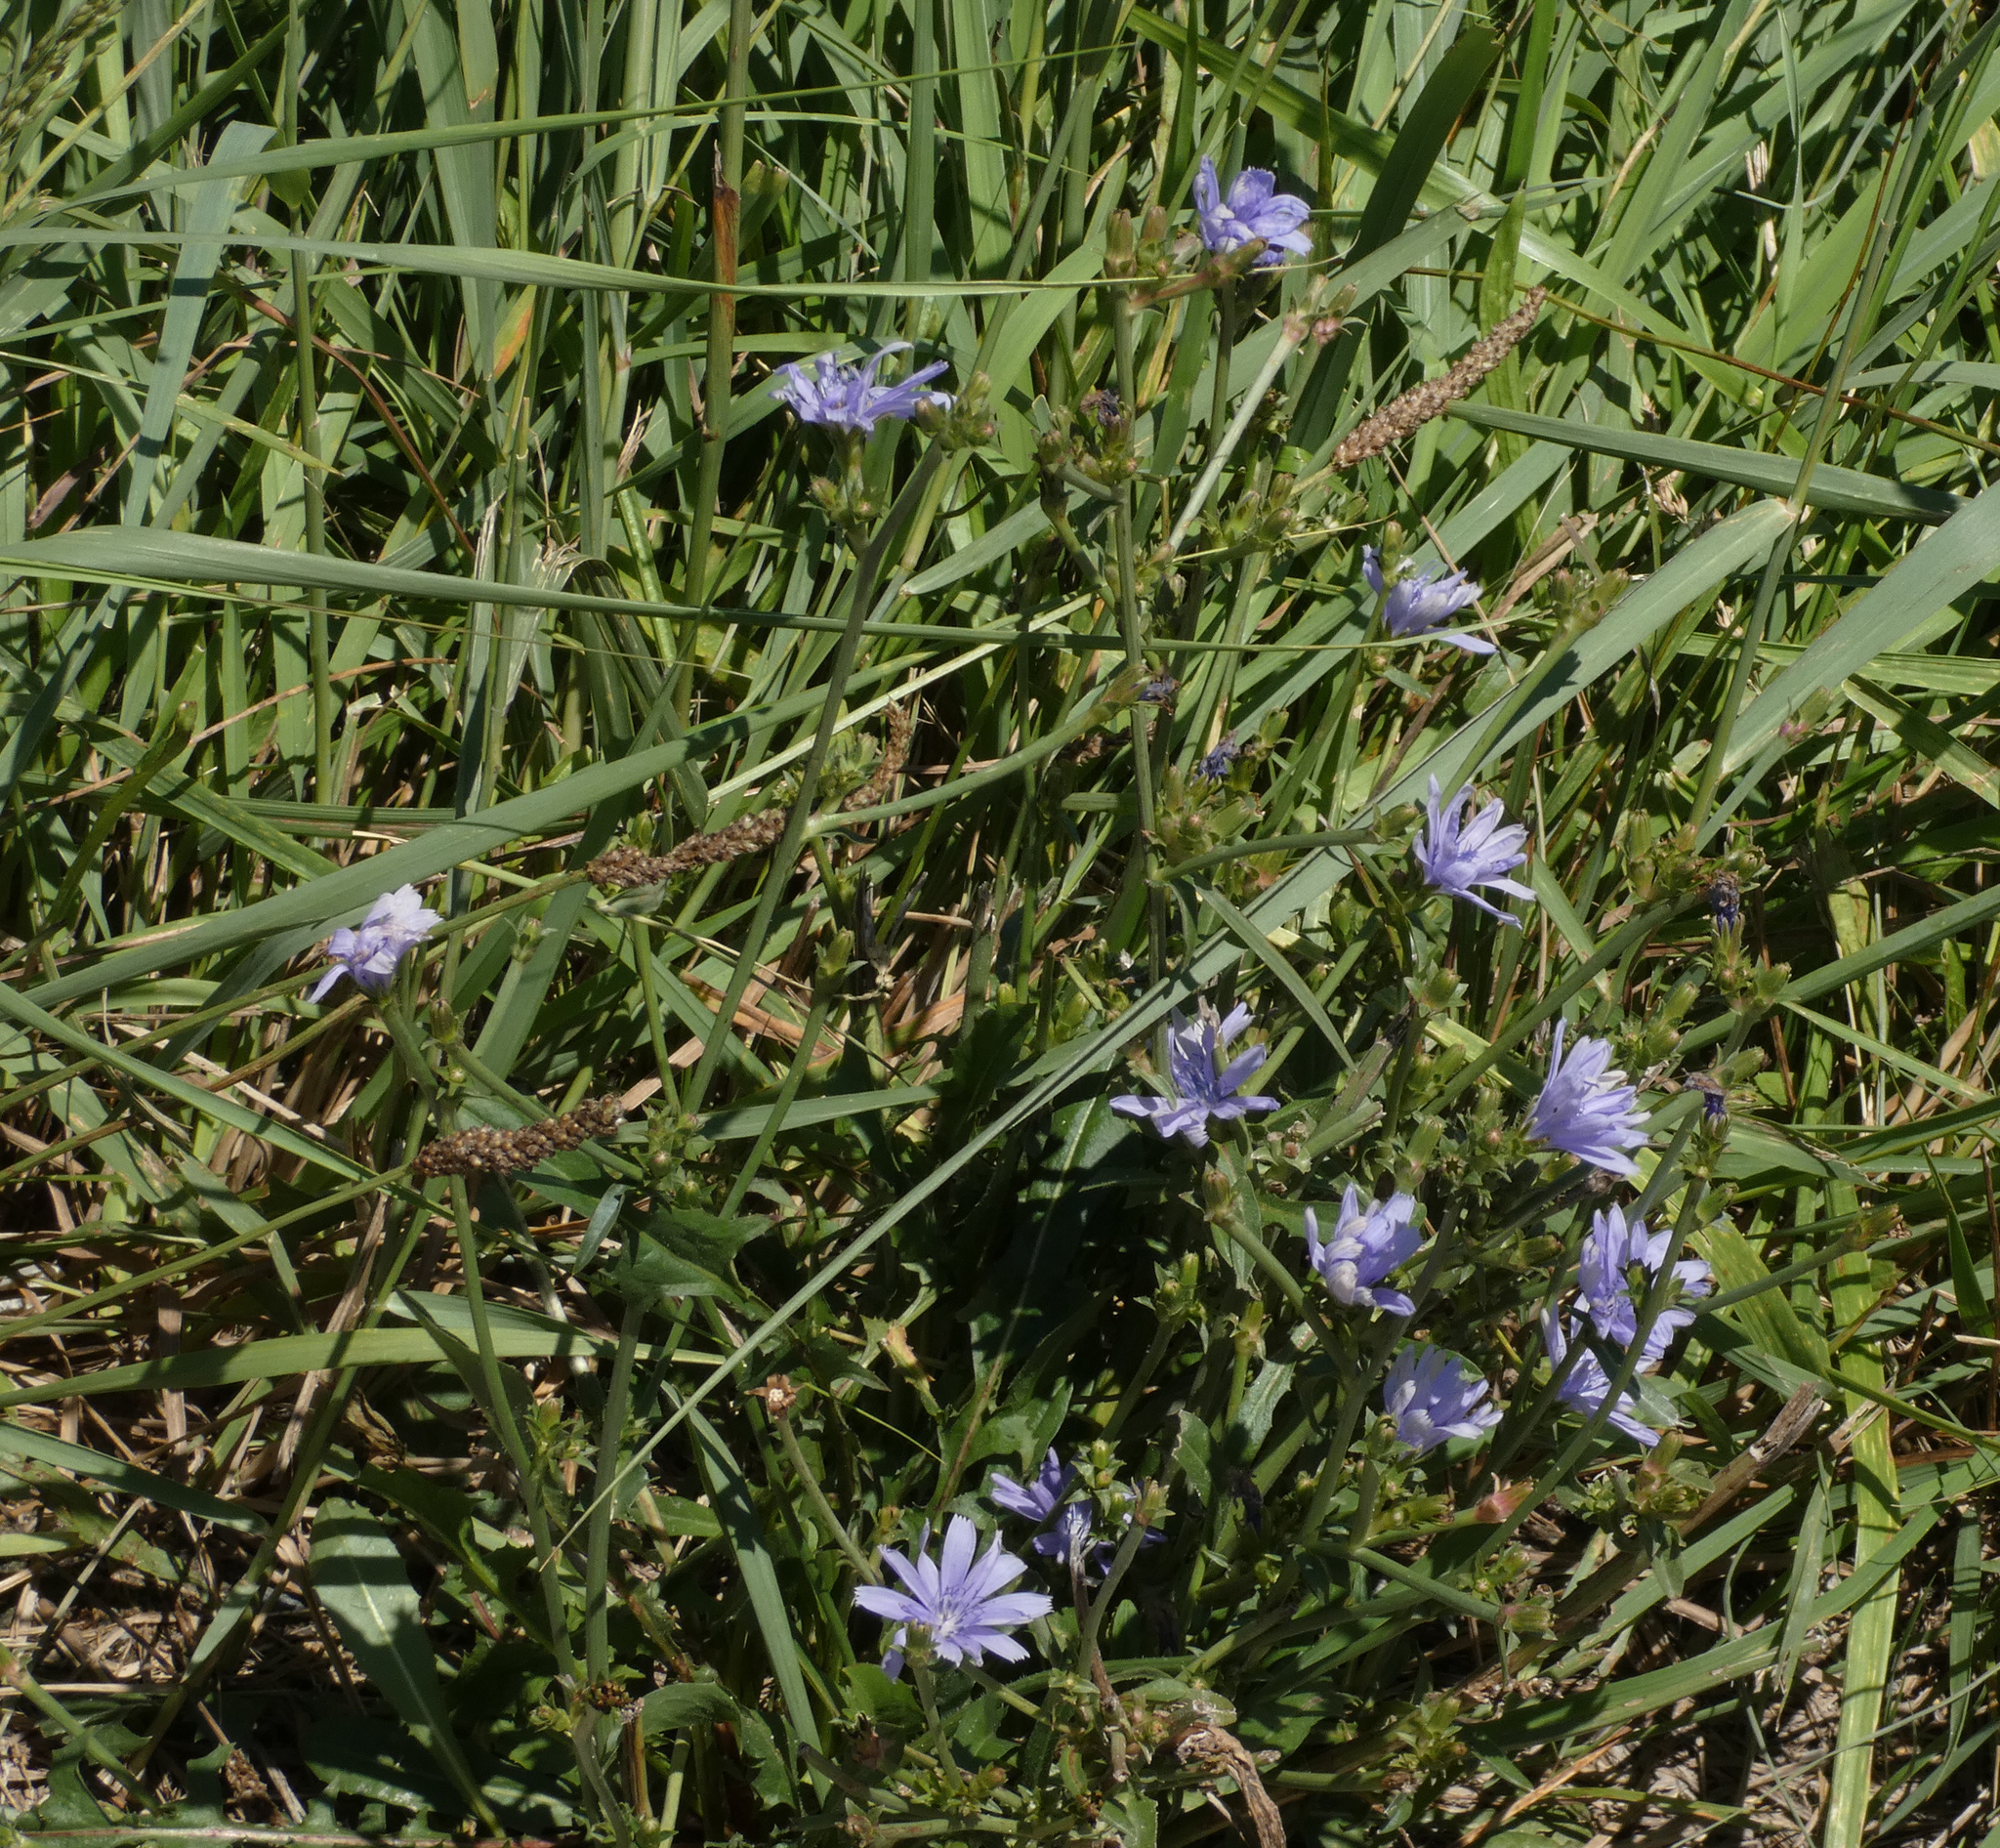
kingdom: Plantae
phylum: Tracheophyta
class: Magnoliopsida
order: Asterales
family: Asteraceae
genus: Cichorium
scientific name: Cichorium intybus
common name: Chicory
